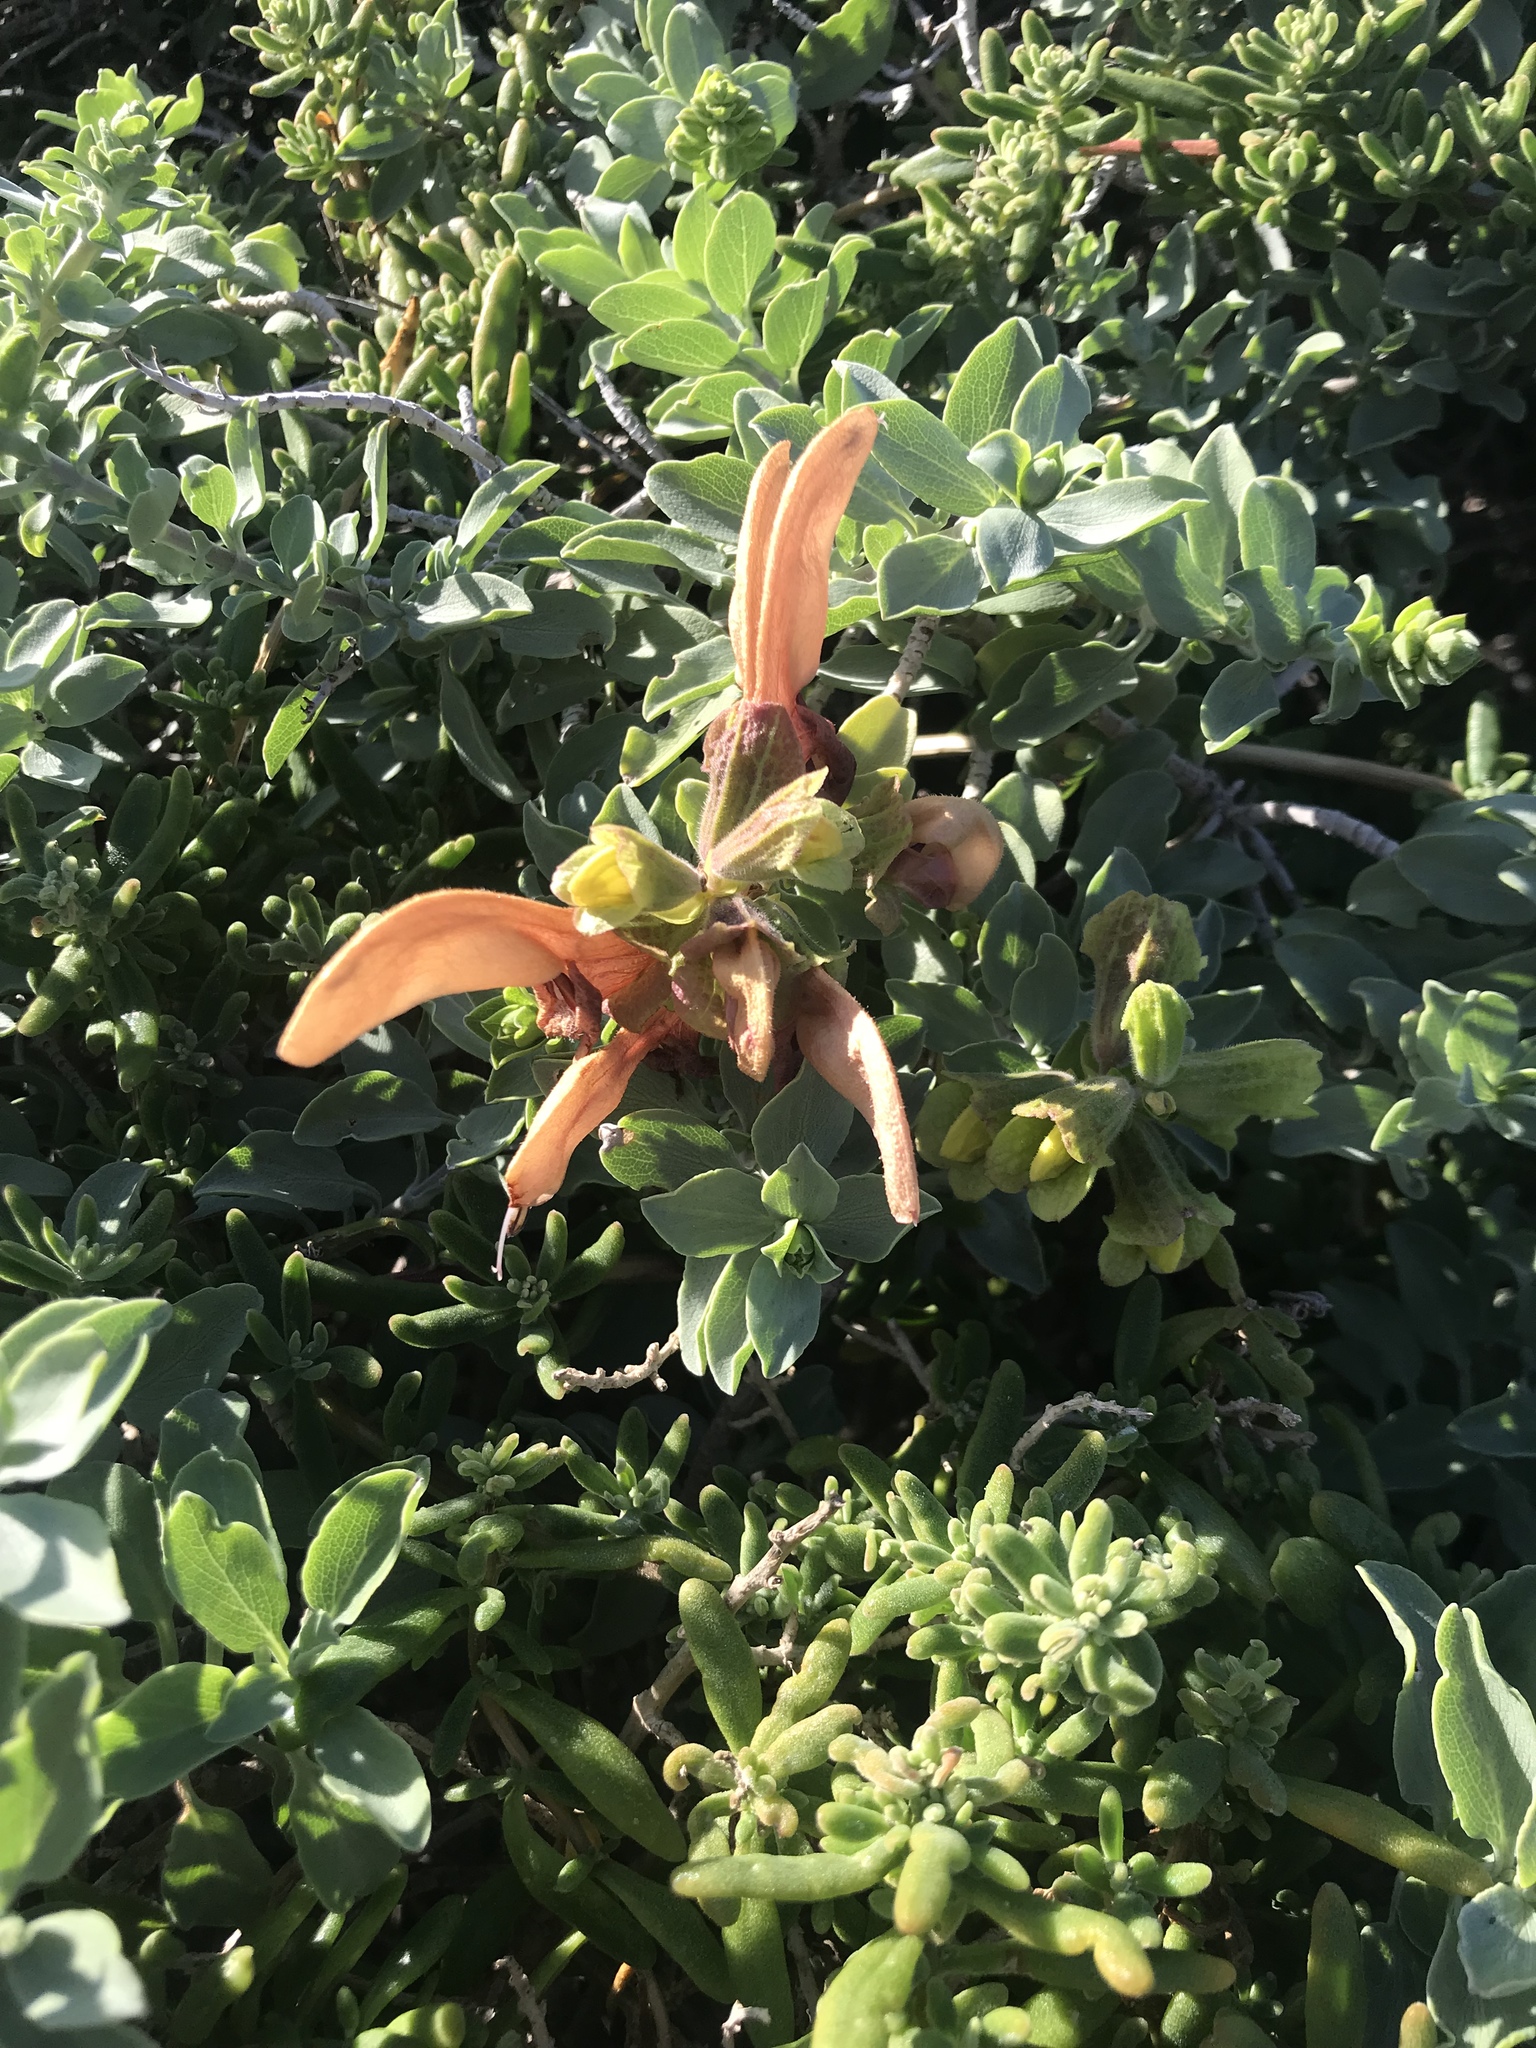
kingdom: Plantae
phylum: Tracheophyta
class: Magnoliopsida
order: Lamiales
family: Lamiaceae
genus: Salvia
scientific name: Salvia aurea
